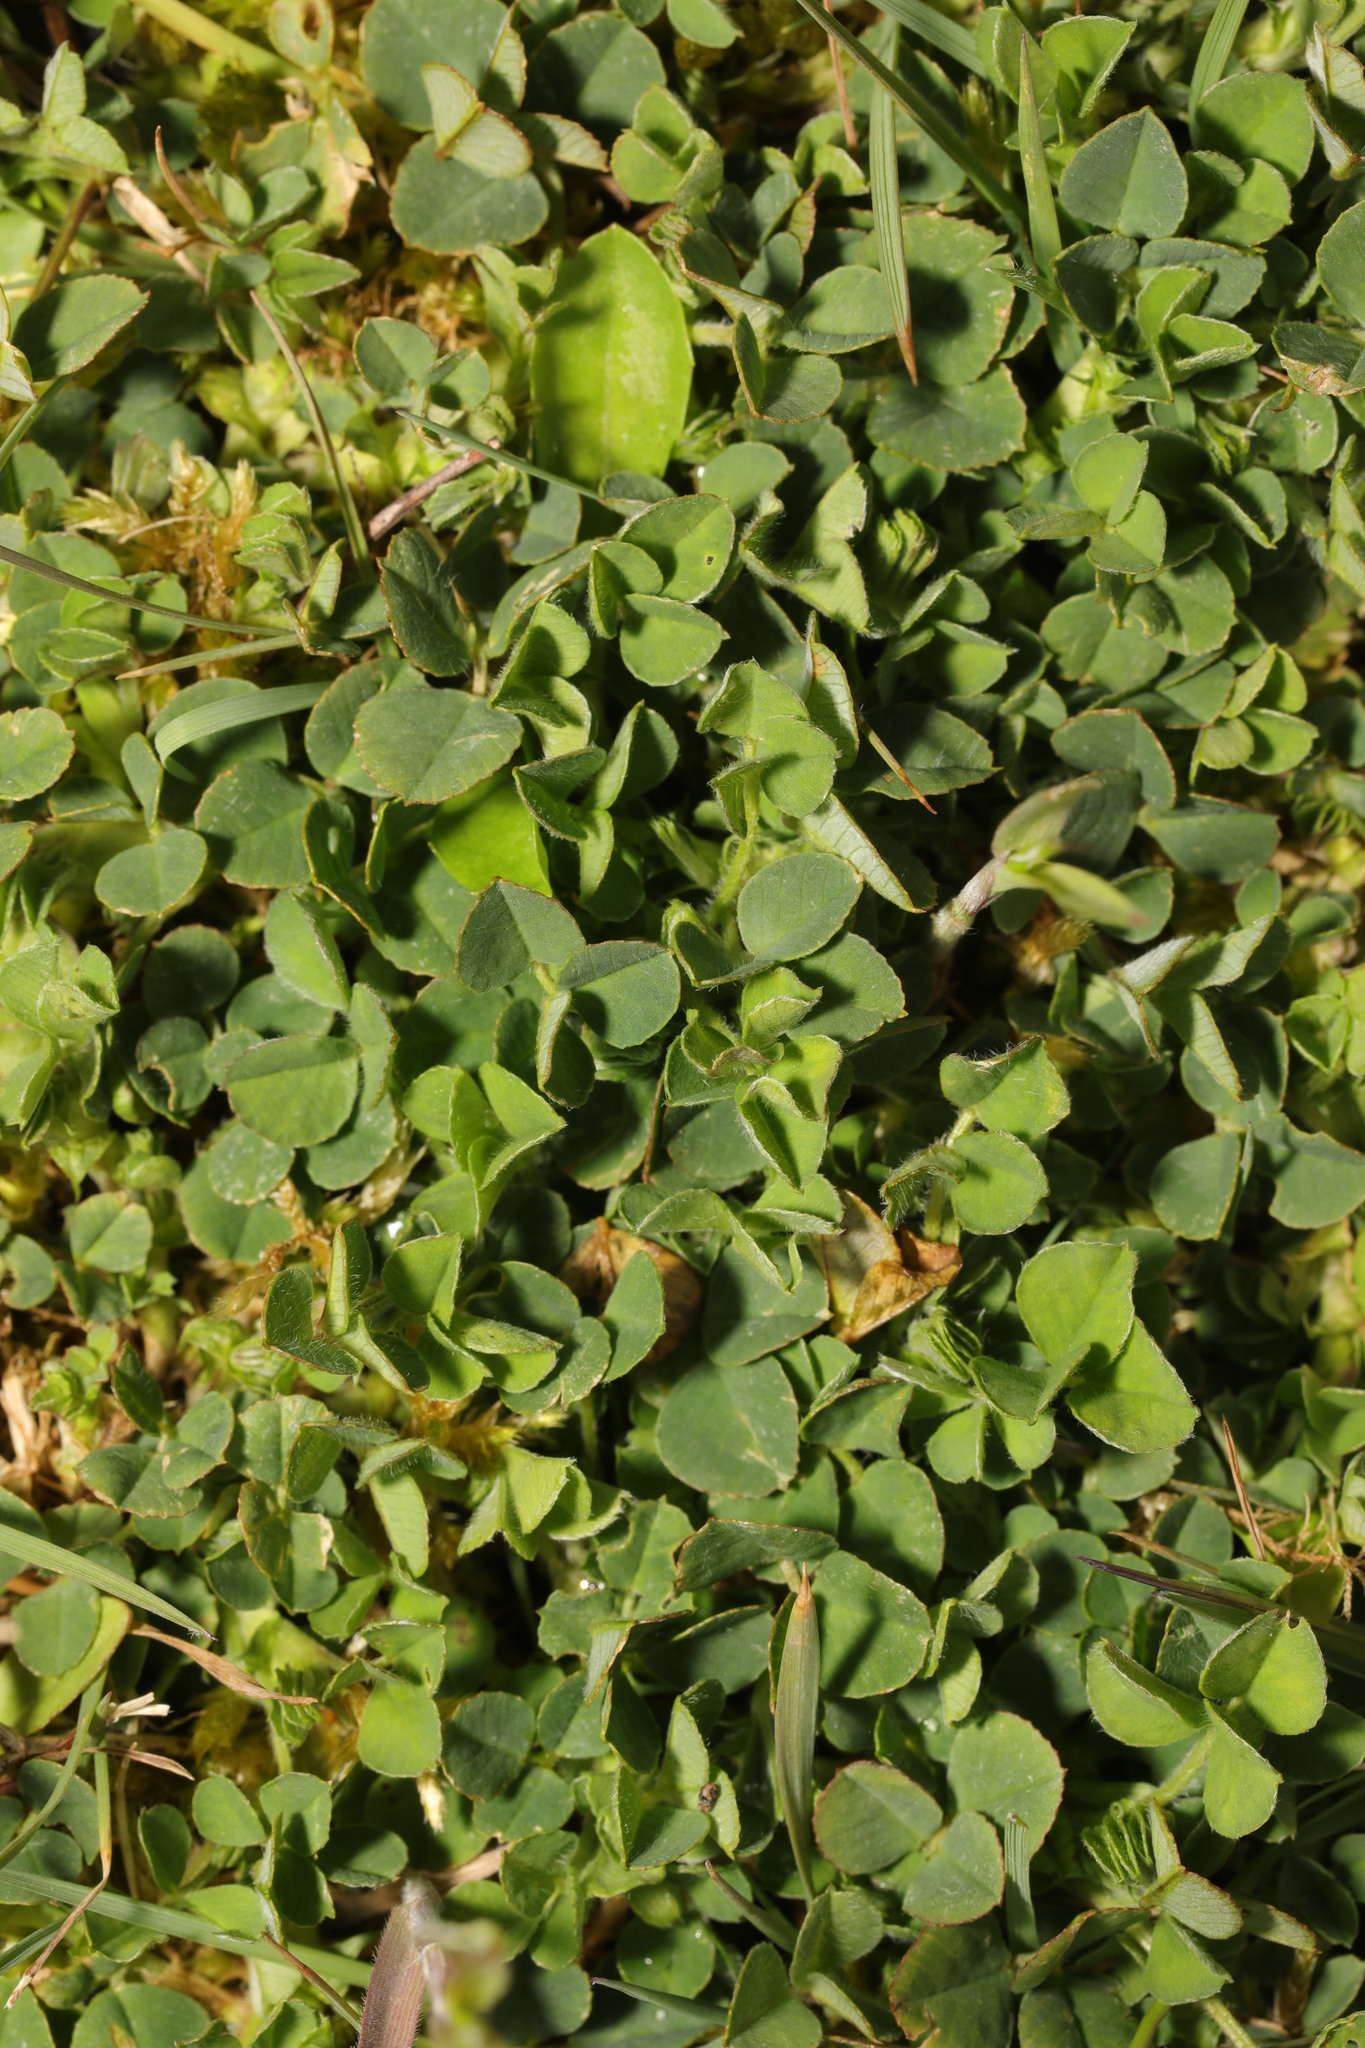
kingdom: Plantae
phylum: Tracheophyta
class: Magnoliopsida
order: Fabales
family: Fabaceae
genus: Trifolium
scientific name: Trifolium pratense
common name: Red clover
